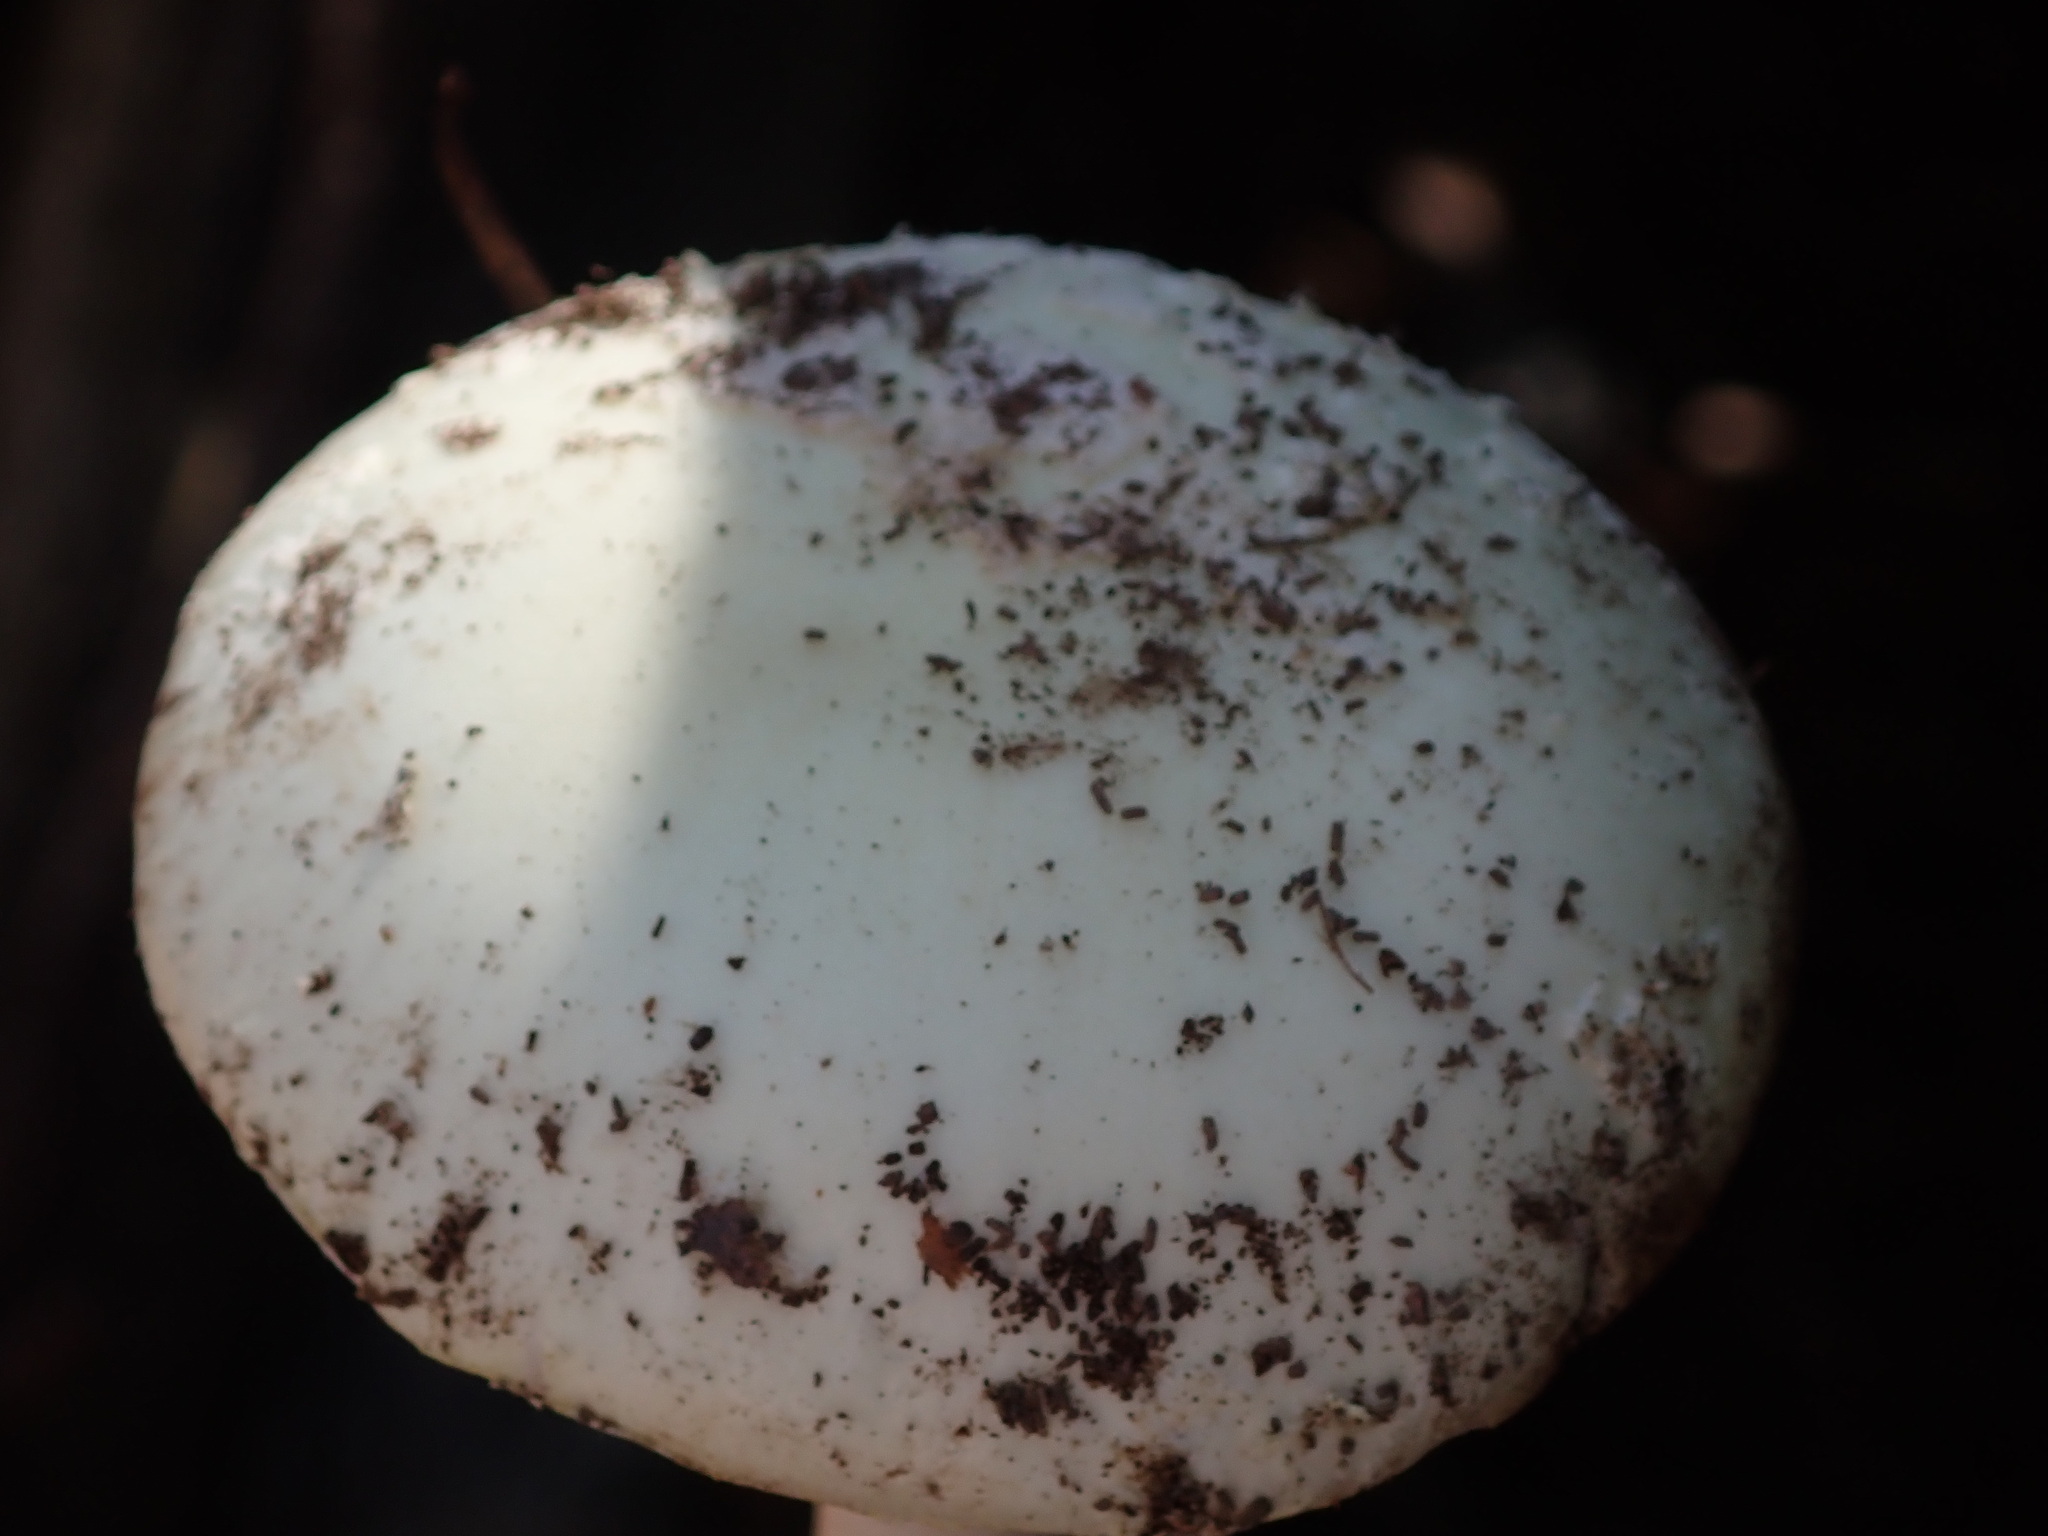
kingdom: Fungi
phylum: Basidiomycota
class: Agaricomycetes
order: Agaricales
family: Amanitaceae
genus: Amanita
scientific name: Amanita citrina
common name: False death-cap
